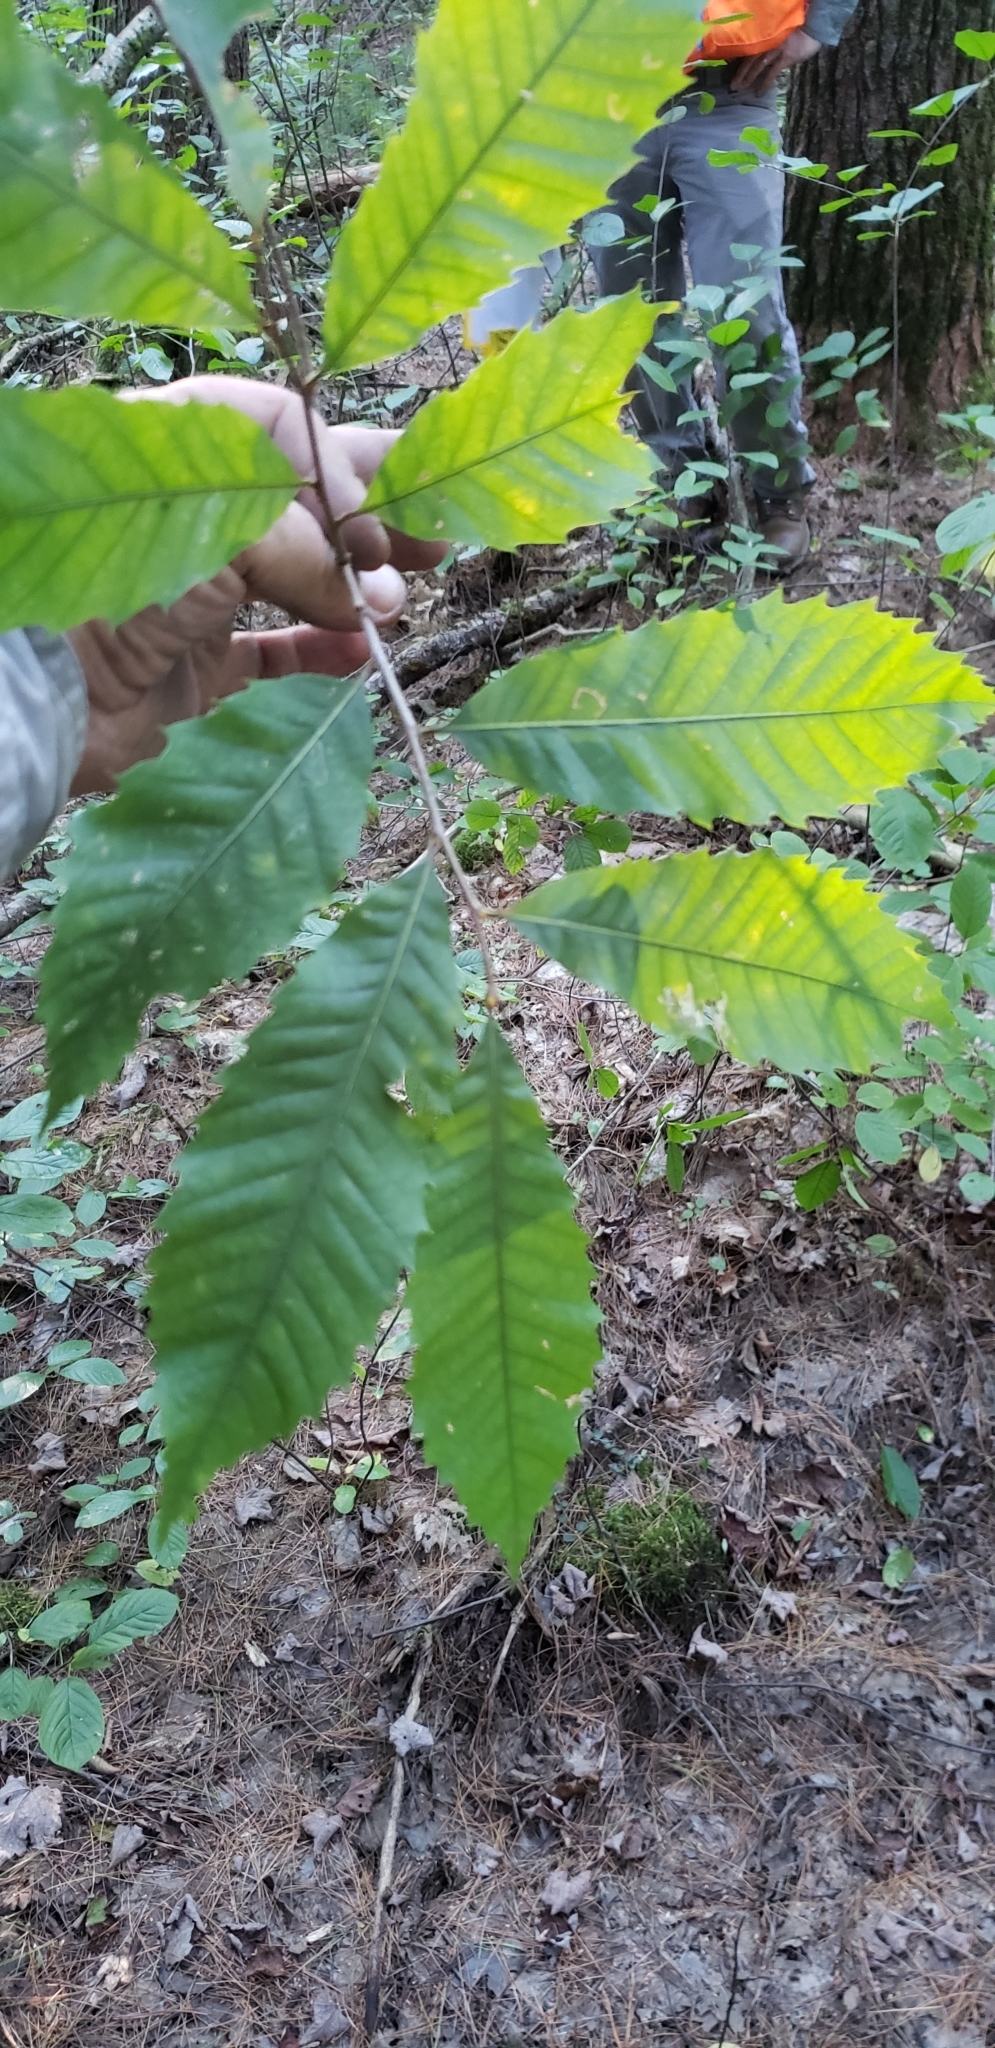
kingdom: Plantae
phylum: Tracheophyta
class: Magnoliopsida
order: Fagales
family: Fagaceae
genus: Castanea
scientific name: Castanea dentata
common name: American chestnut
